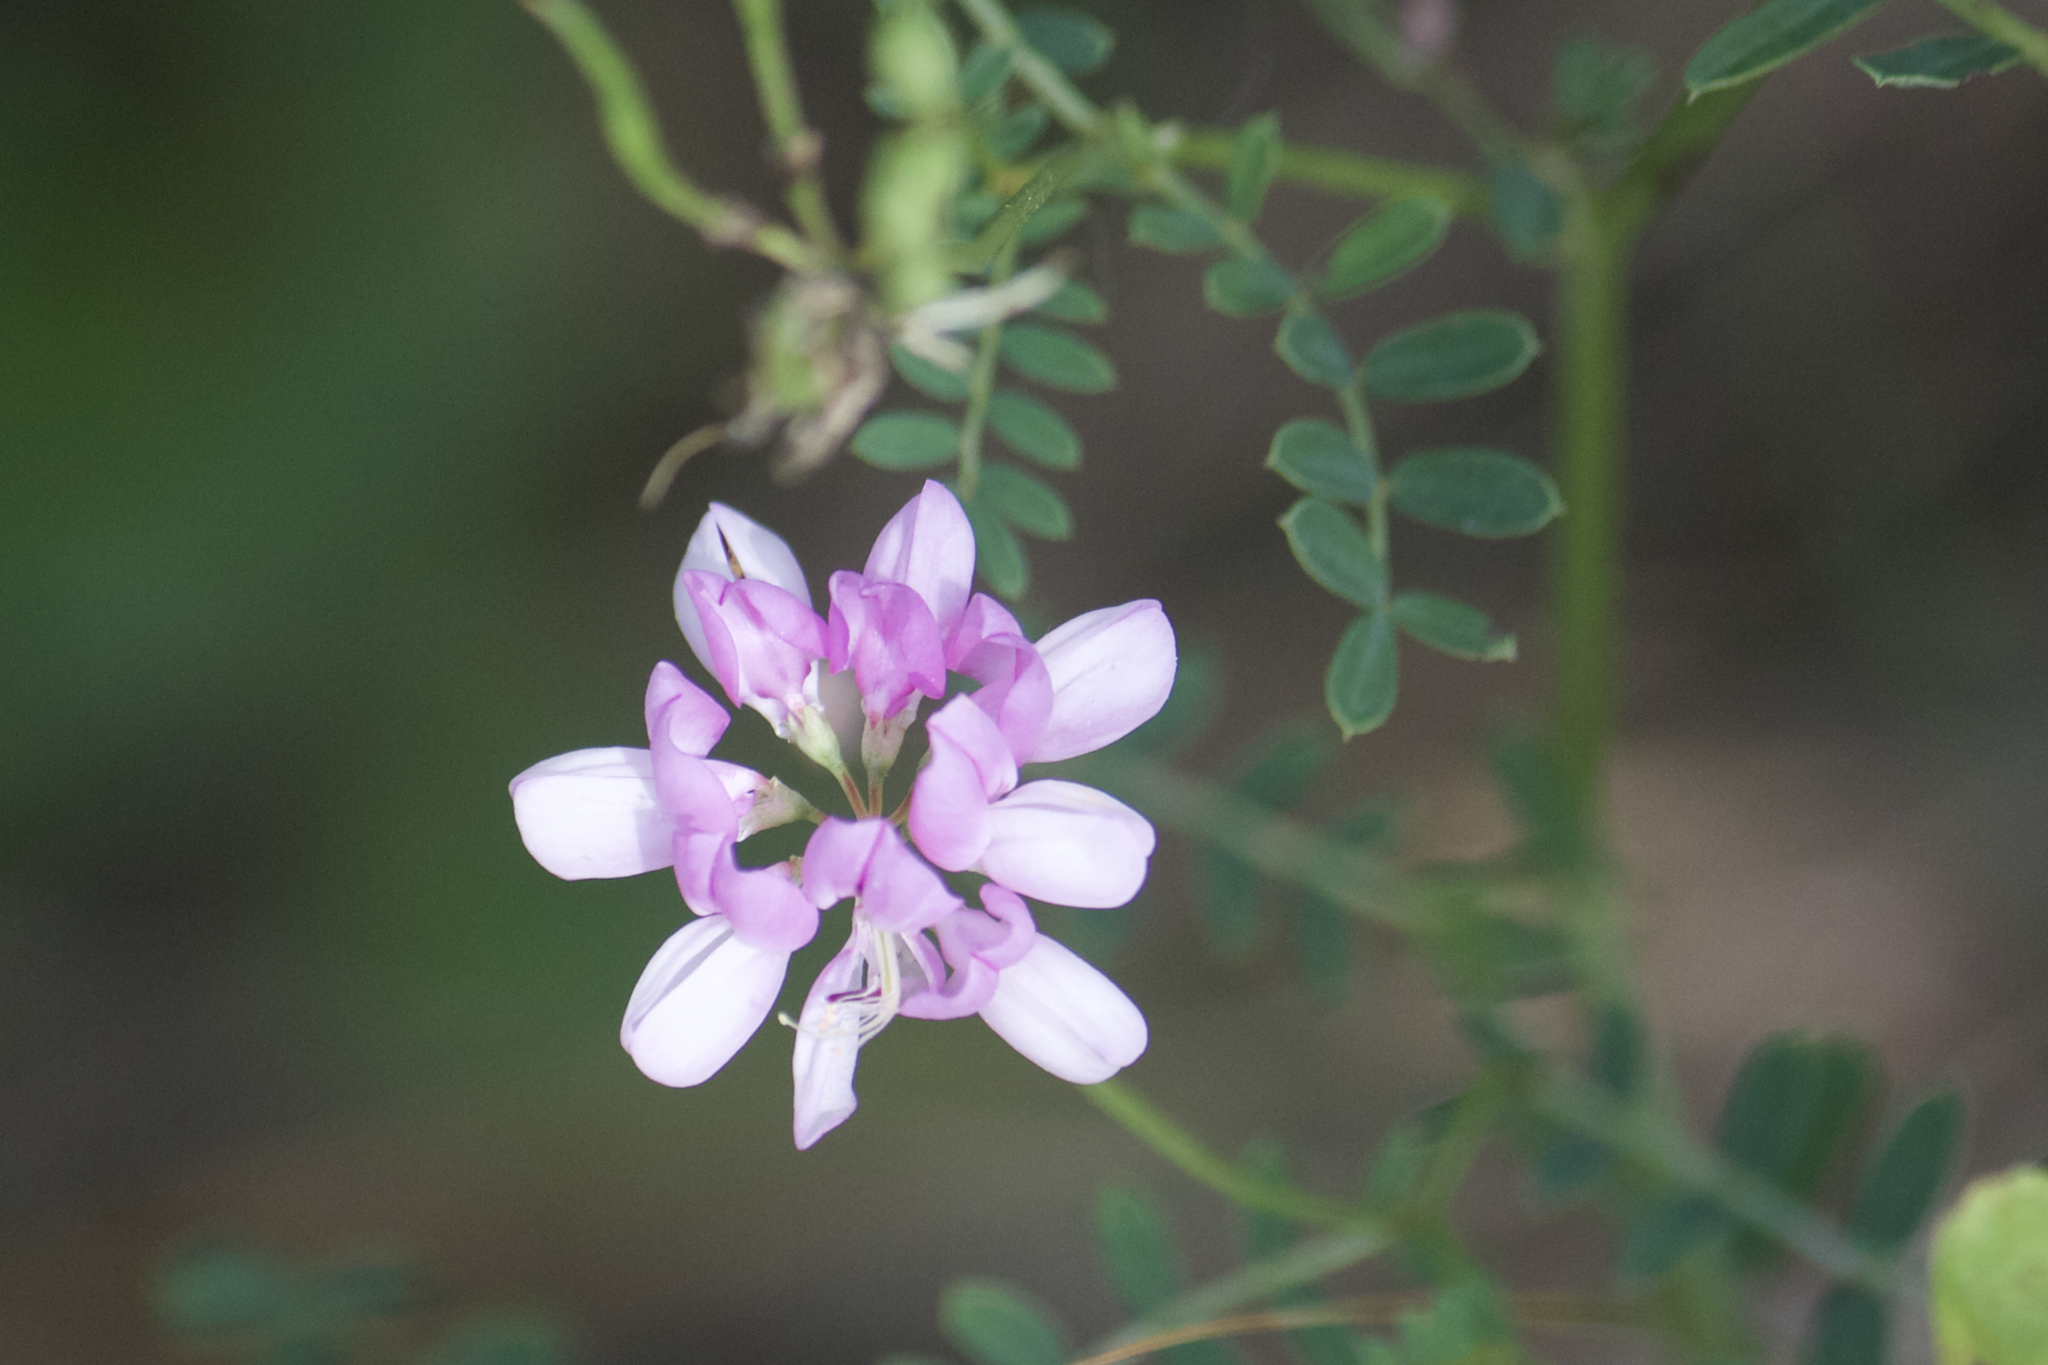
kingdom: Plantae
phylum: Tracheophyta
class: Magnoliopsida
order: Fabales
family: Fabaceae
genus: Coronilla
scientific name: Coronilla varia
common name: Crownvetch
